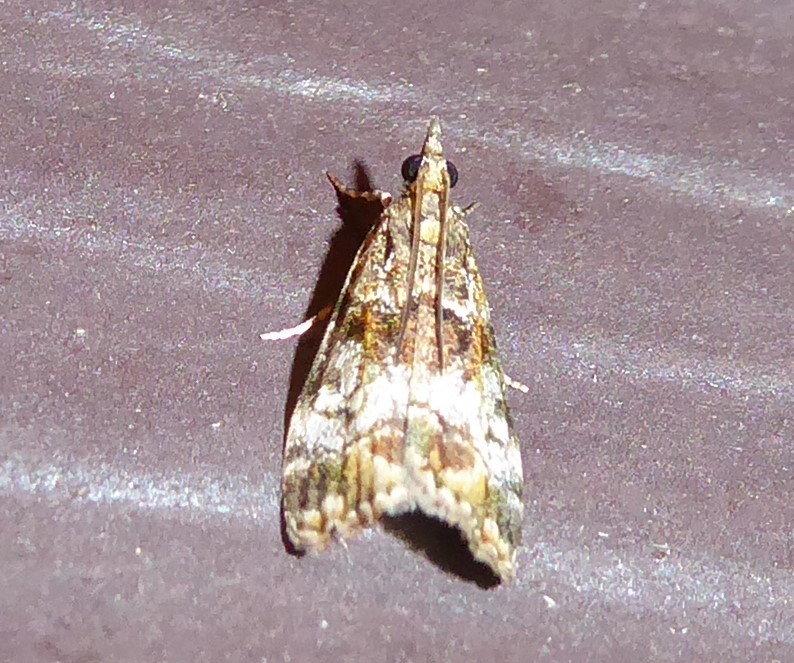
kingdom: Animalia
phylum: Arthropoda
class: Insecta
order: Lepidoptera
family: Crambidae
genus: Eudonia
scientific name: Eudonia dinodes
